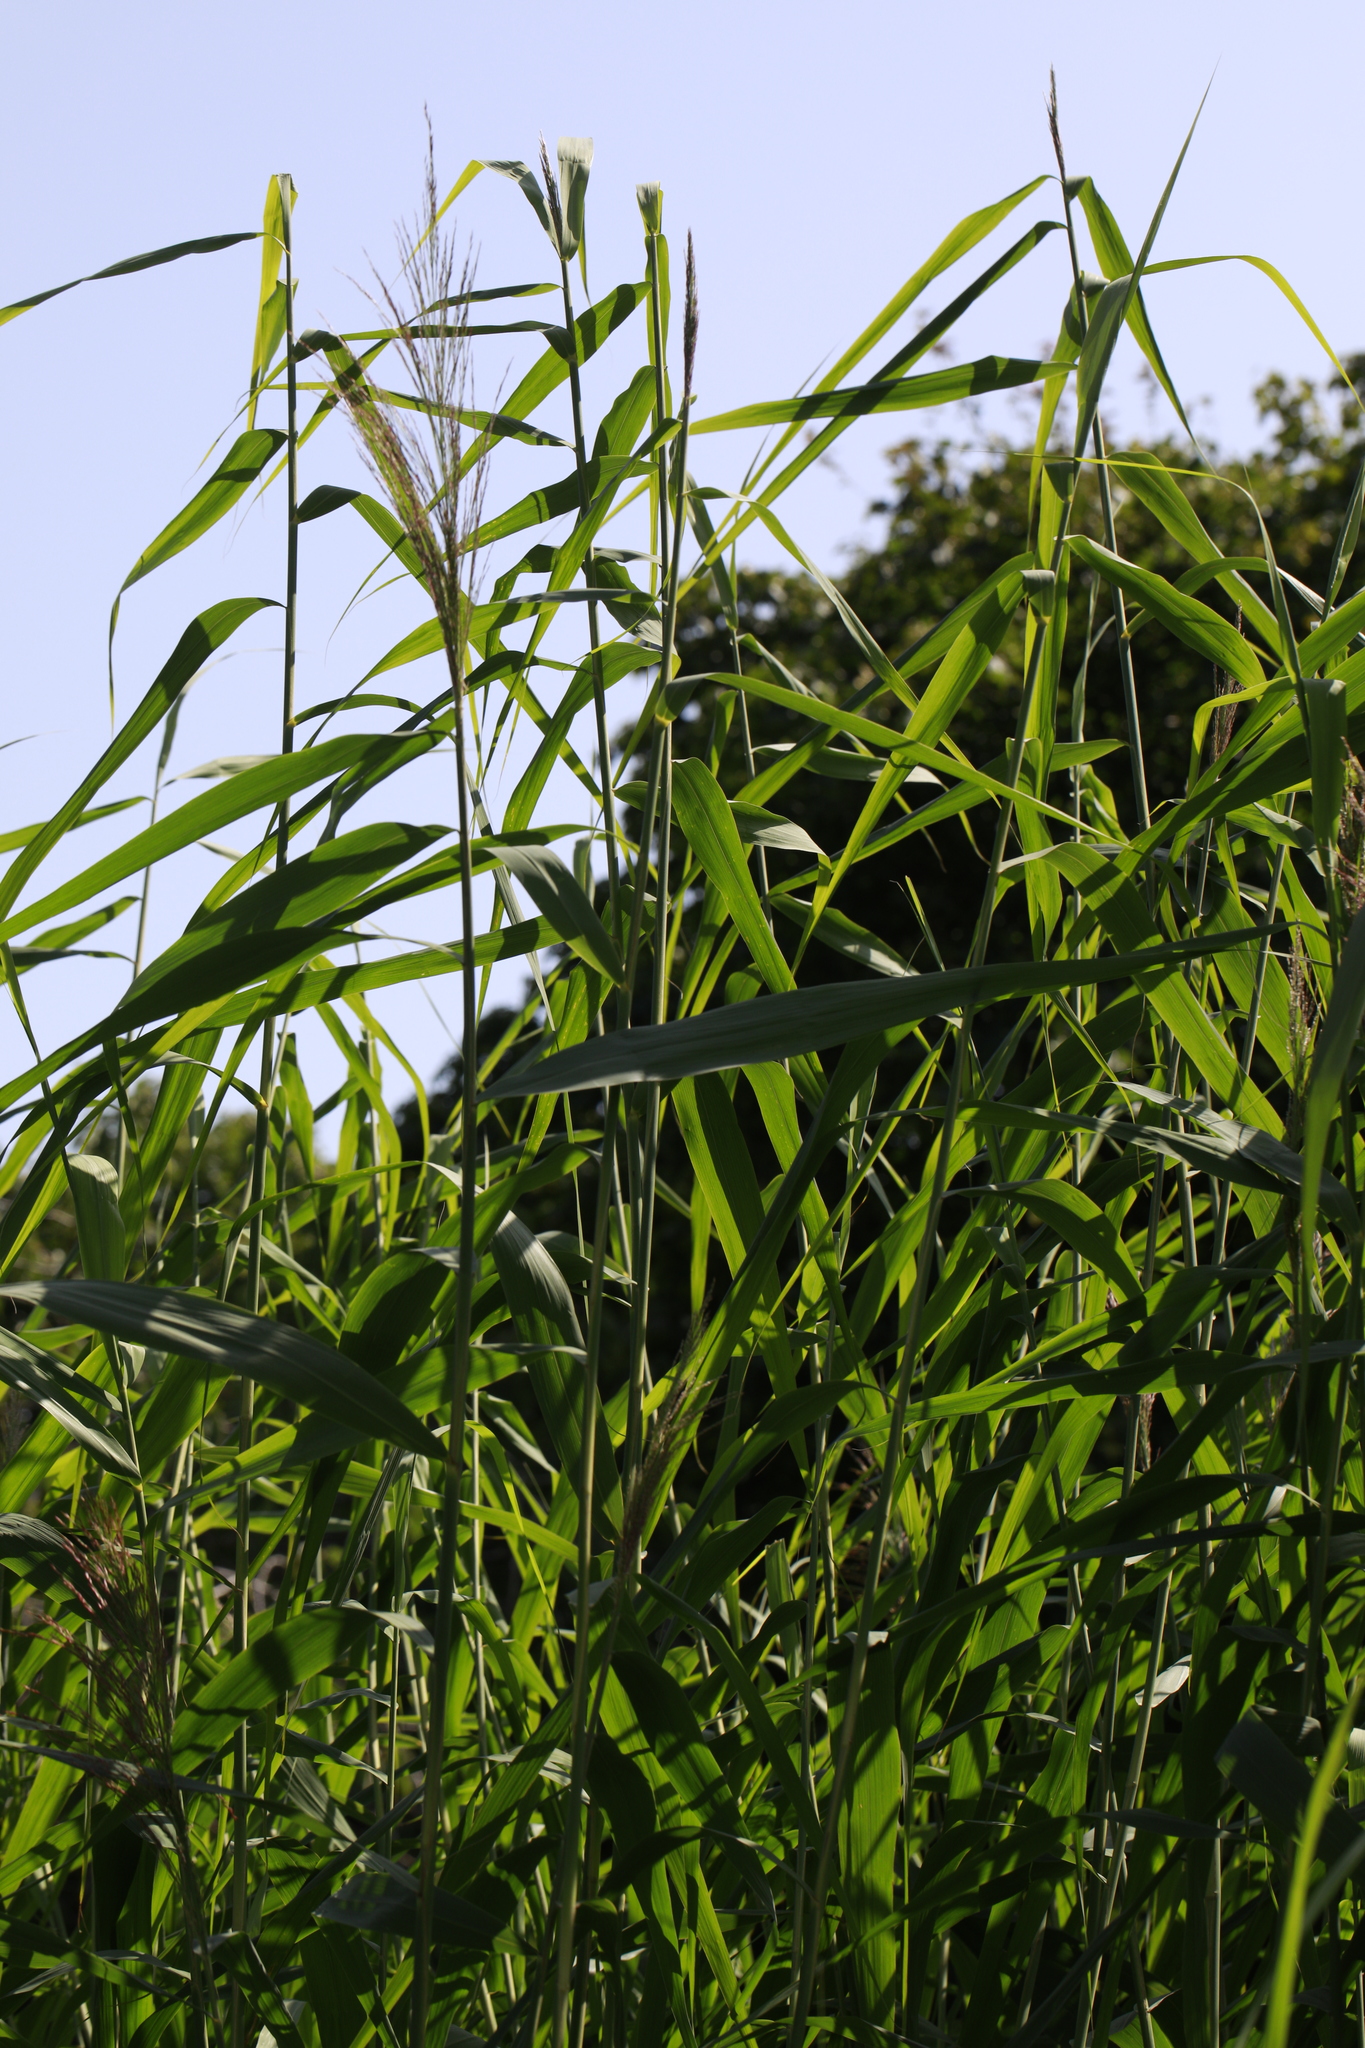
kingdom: Plantae
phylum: Tracheophyta
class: Liliopsida
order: Poales
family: Poaceae
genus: Phragmites
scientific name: Phragmites australis
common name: Common reed
